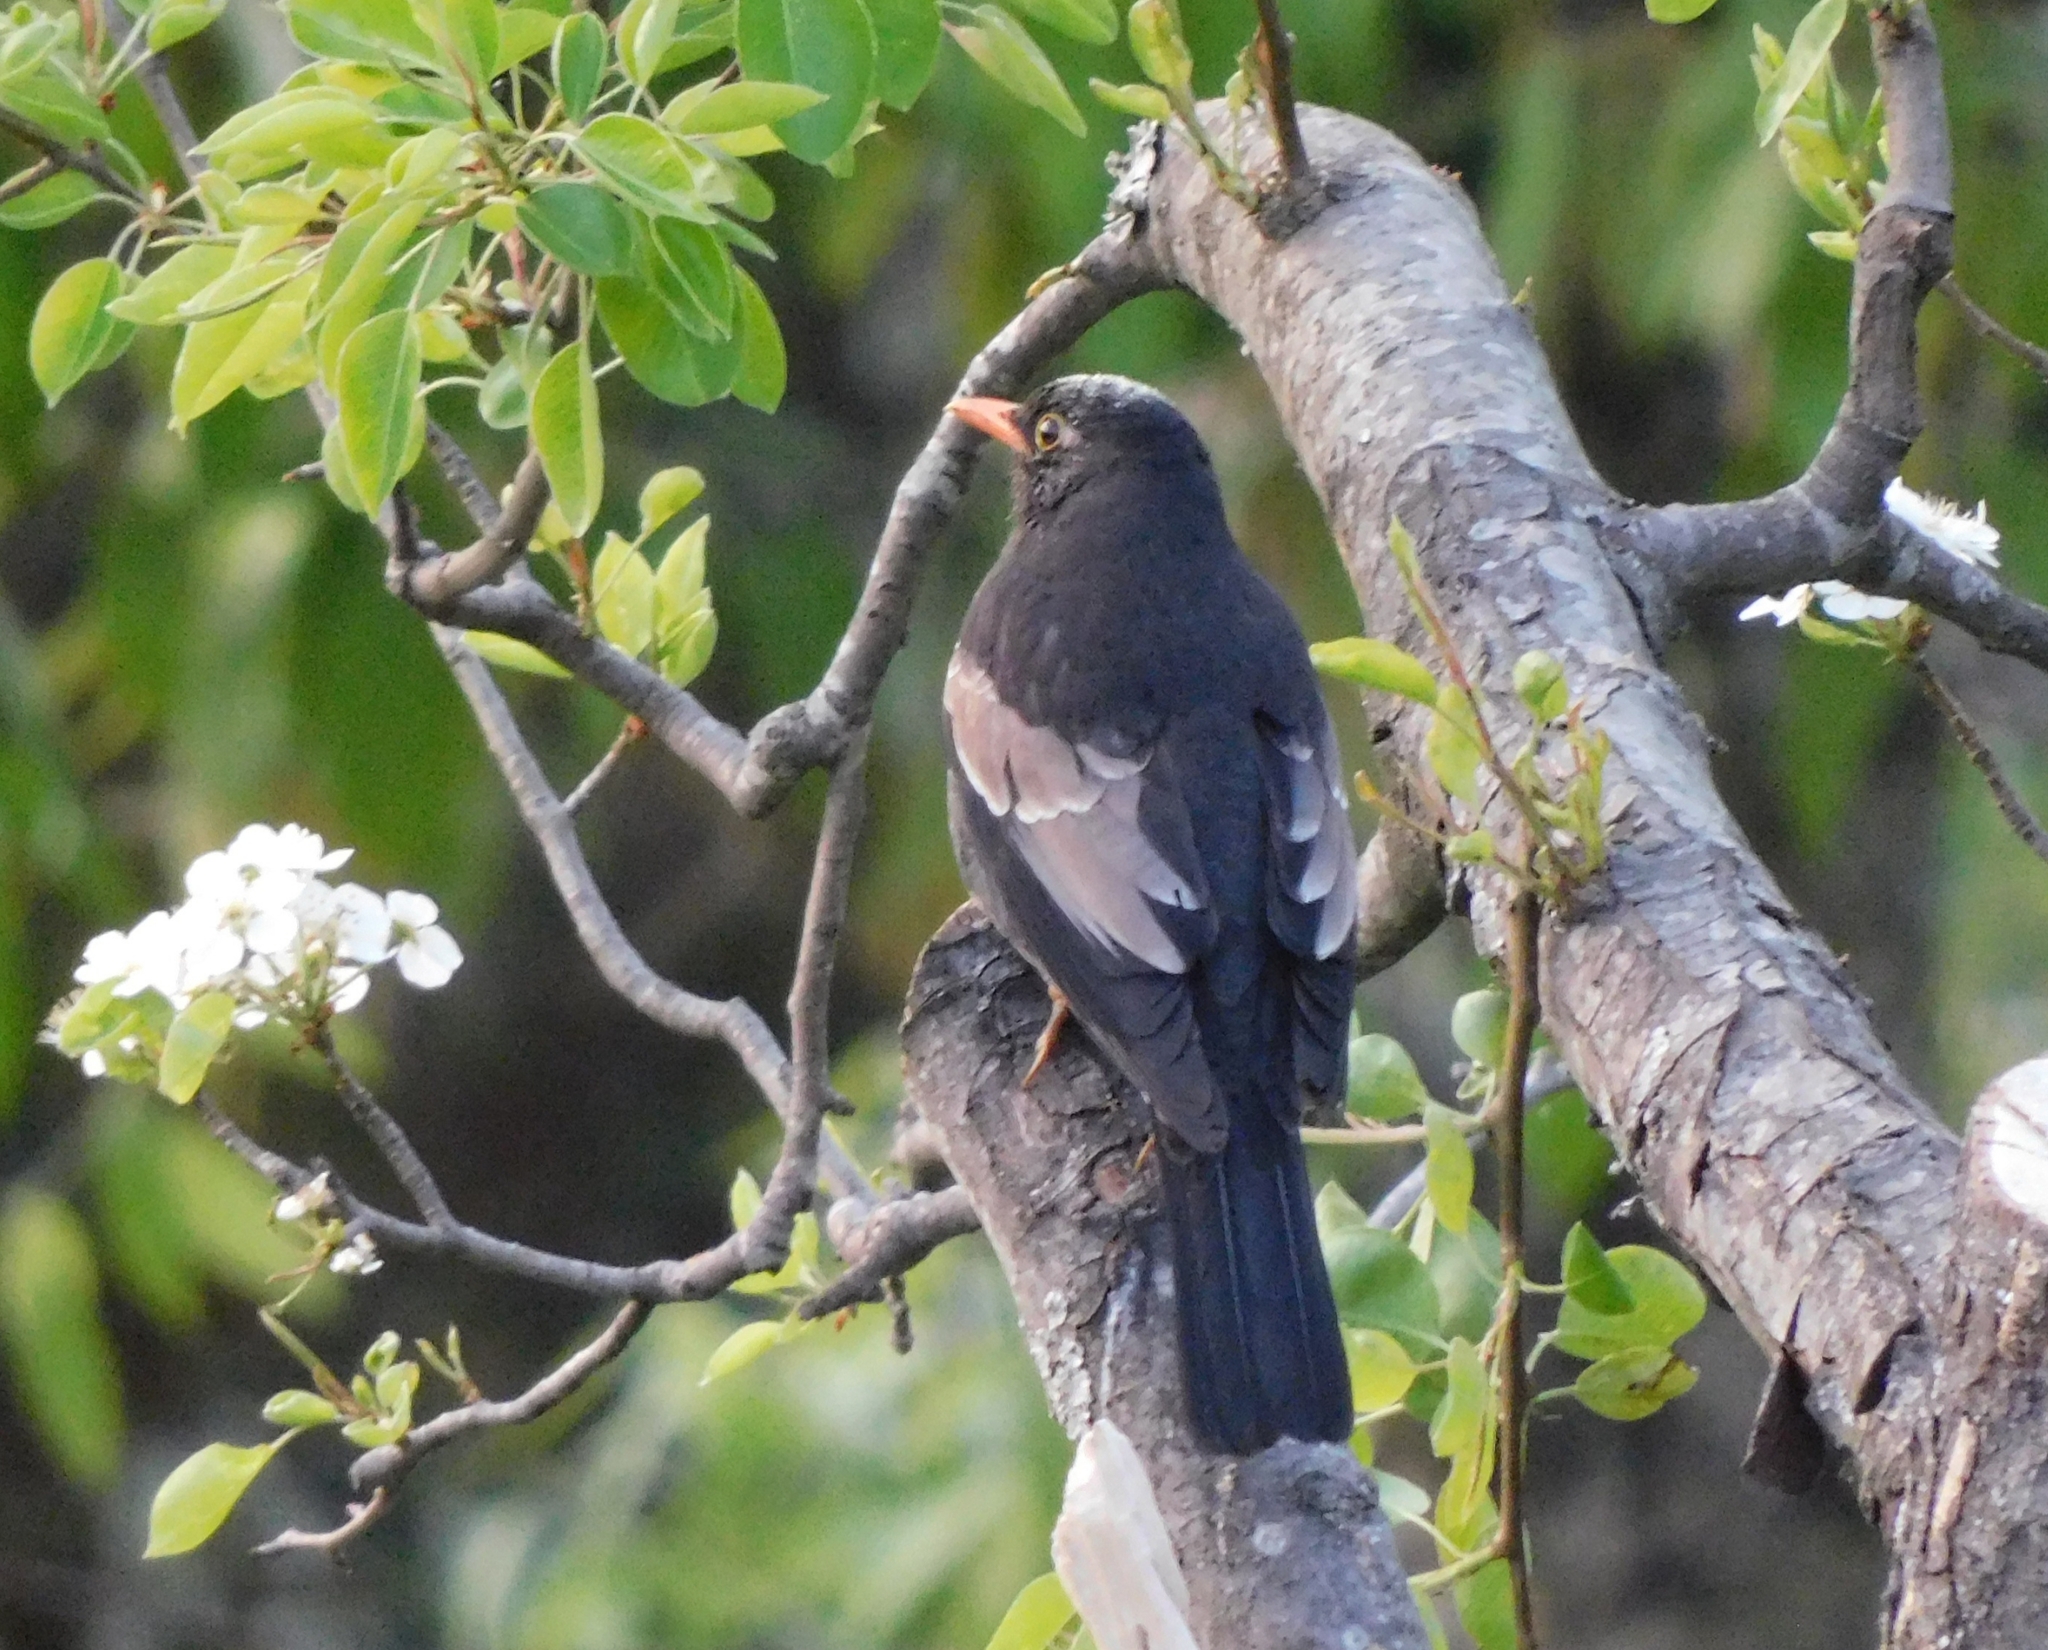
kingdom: Animalia
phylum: Chordata
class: Aves
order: Passeriformes
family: Turdidae
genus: Turdus
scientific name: Turdus boulboul
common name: Grey-winged blackbird
